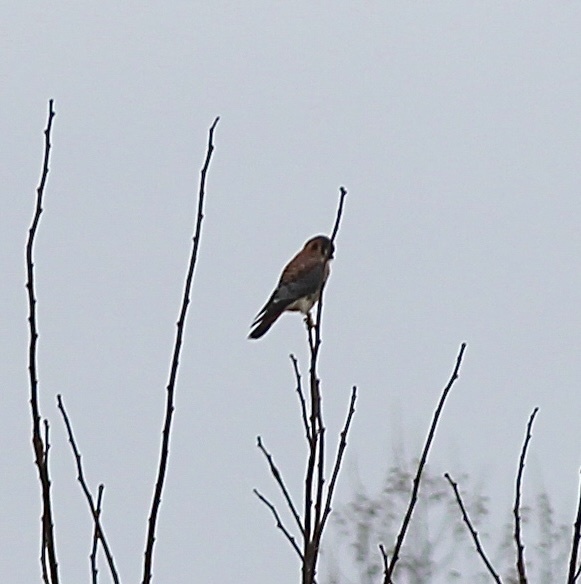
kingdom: Animalia
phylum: Chordata
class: Aves
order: Falconiformes
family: Falconidae
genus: Falco
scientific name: Falco sparverius
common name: American kestrel
